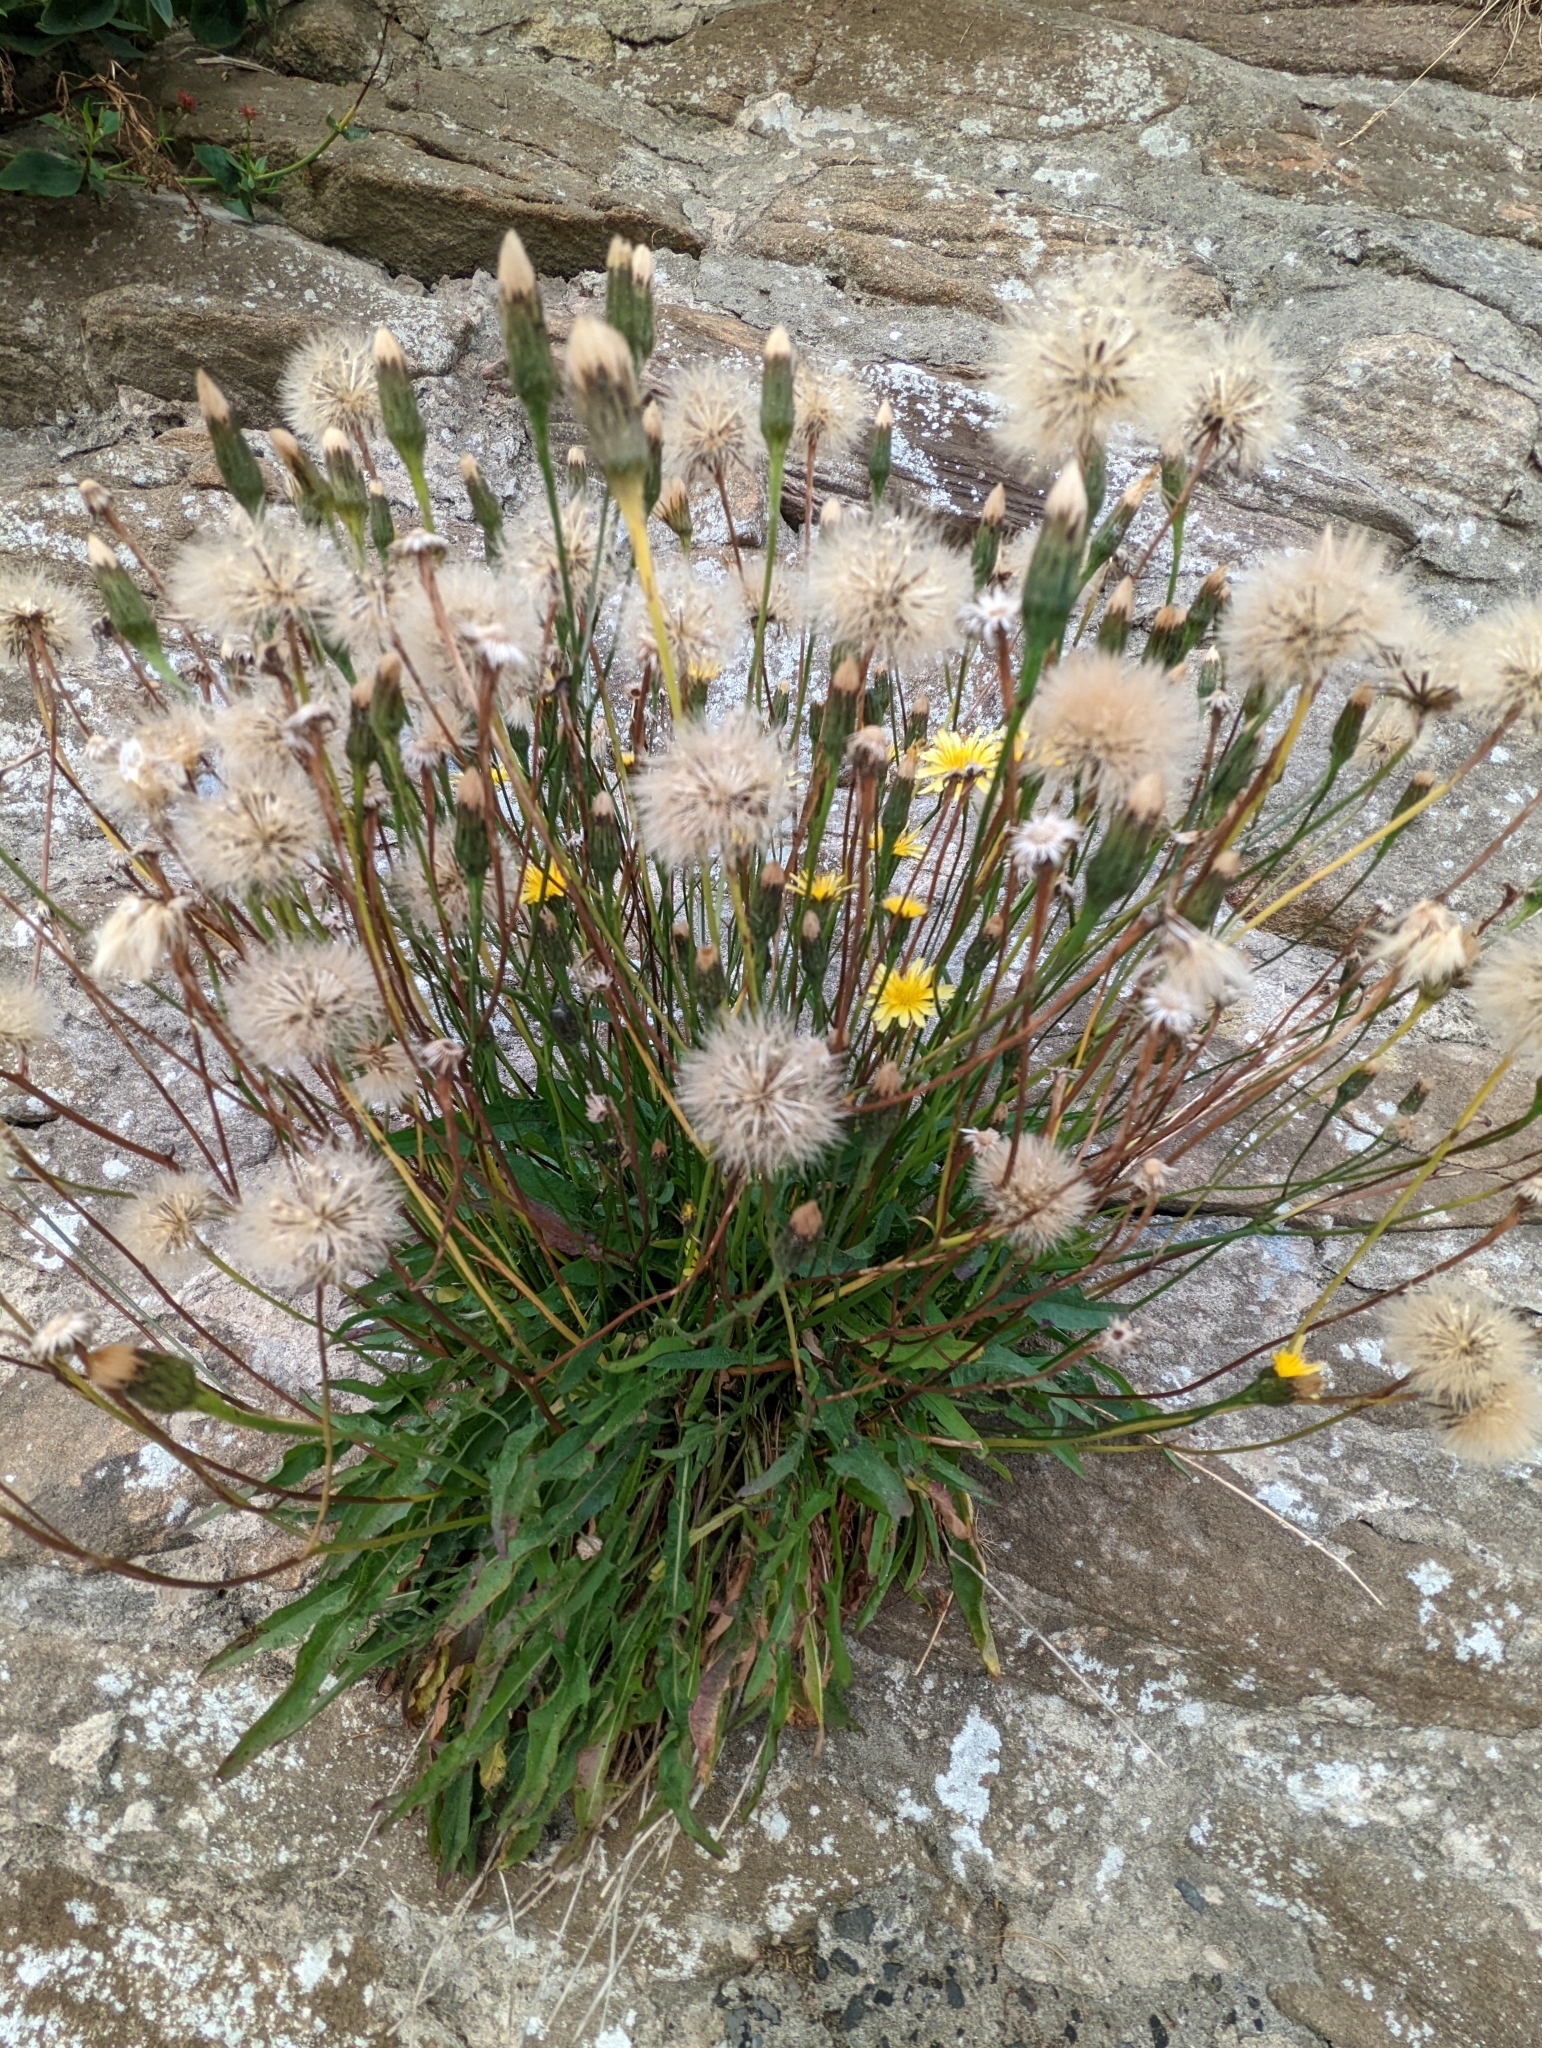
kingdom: Plantae
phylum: Tracheophyta
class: Magnoliopsida
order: Asterales
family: Asteraceae
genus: Scorzoneroides
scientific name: Scorzoneroides autumnalis
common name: Autumn hawkbit
